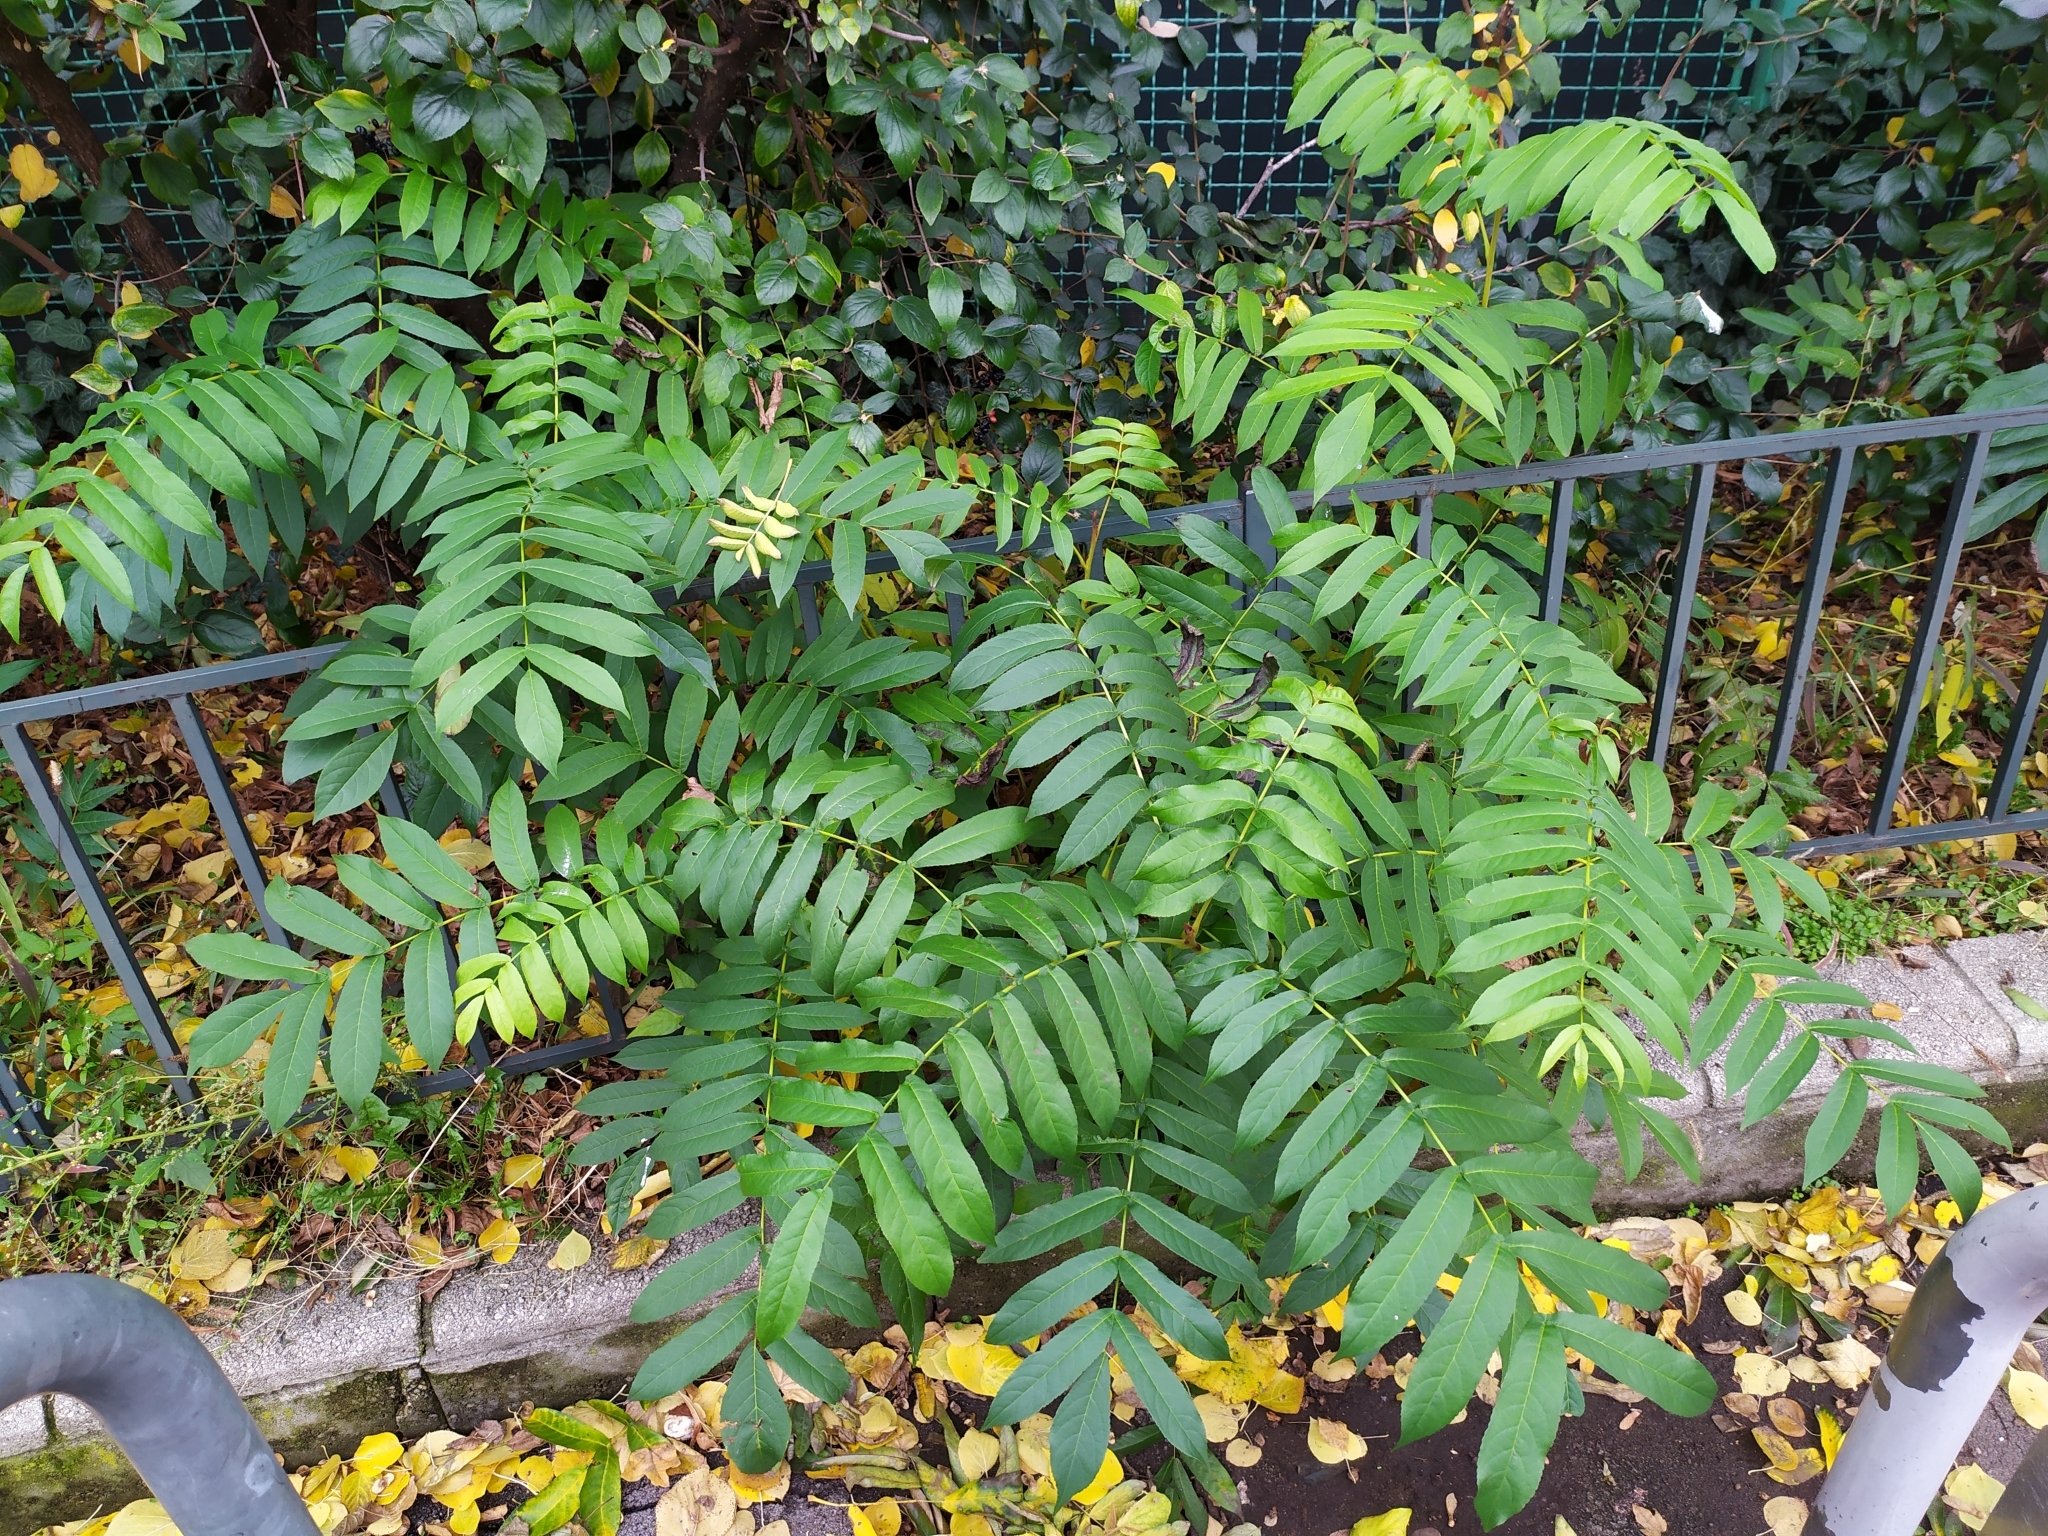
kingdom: Plantae
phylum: Tracheophyta
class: Magnoliopsida
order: Fagales
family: Juglandaceae
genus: Pterocarya
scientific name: Pterocarya fraxinifolia
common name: Caucasian wingnut
